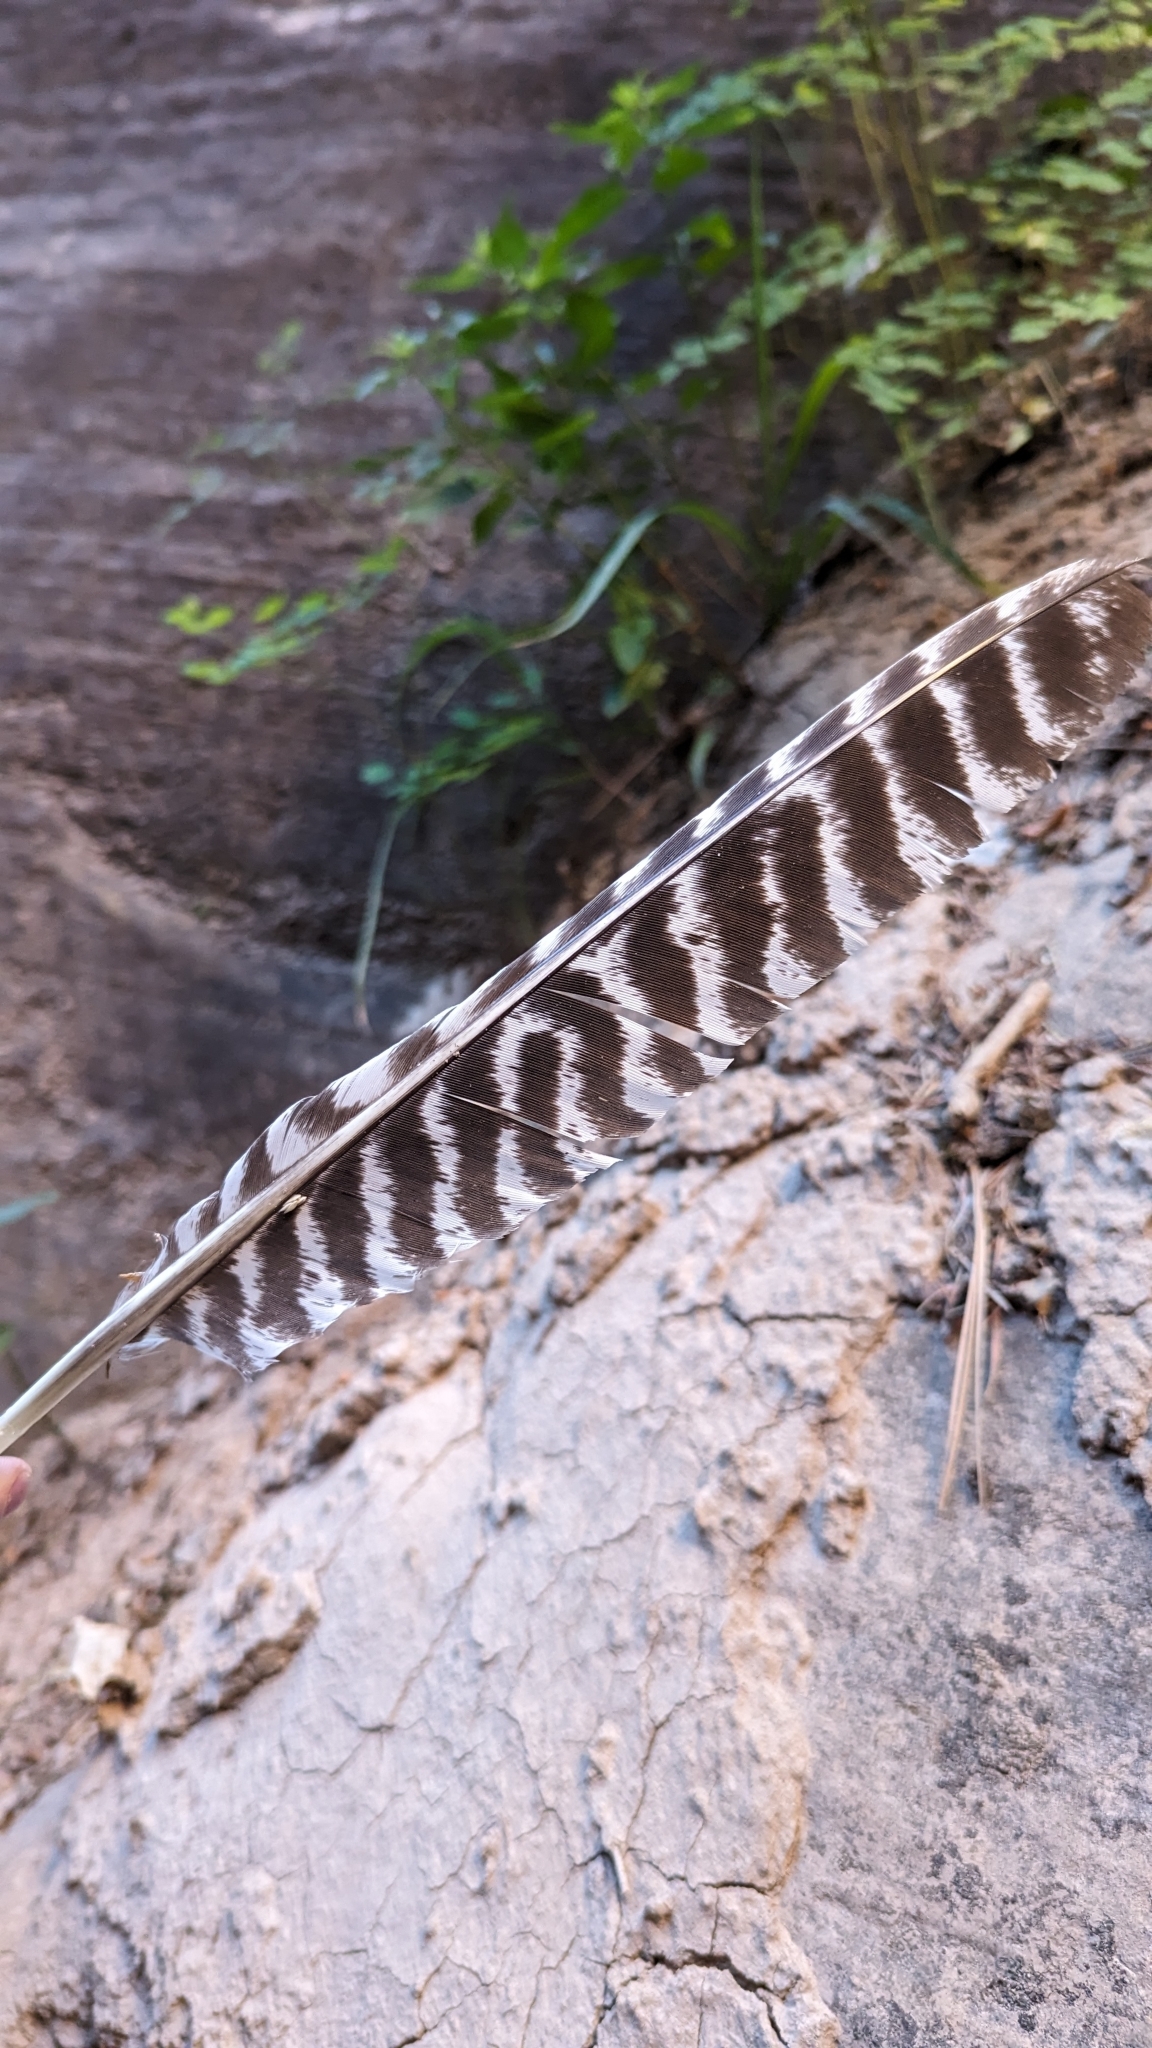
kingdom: Animalia
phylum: Chordata
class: Aves
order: Galliformes
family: Phasianidae
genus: Meleagris
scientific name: Meleagris gallopavo
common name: Wild turkey
